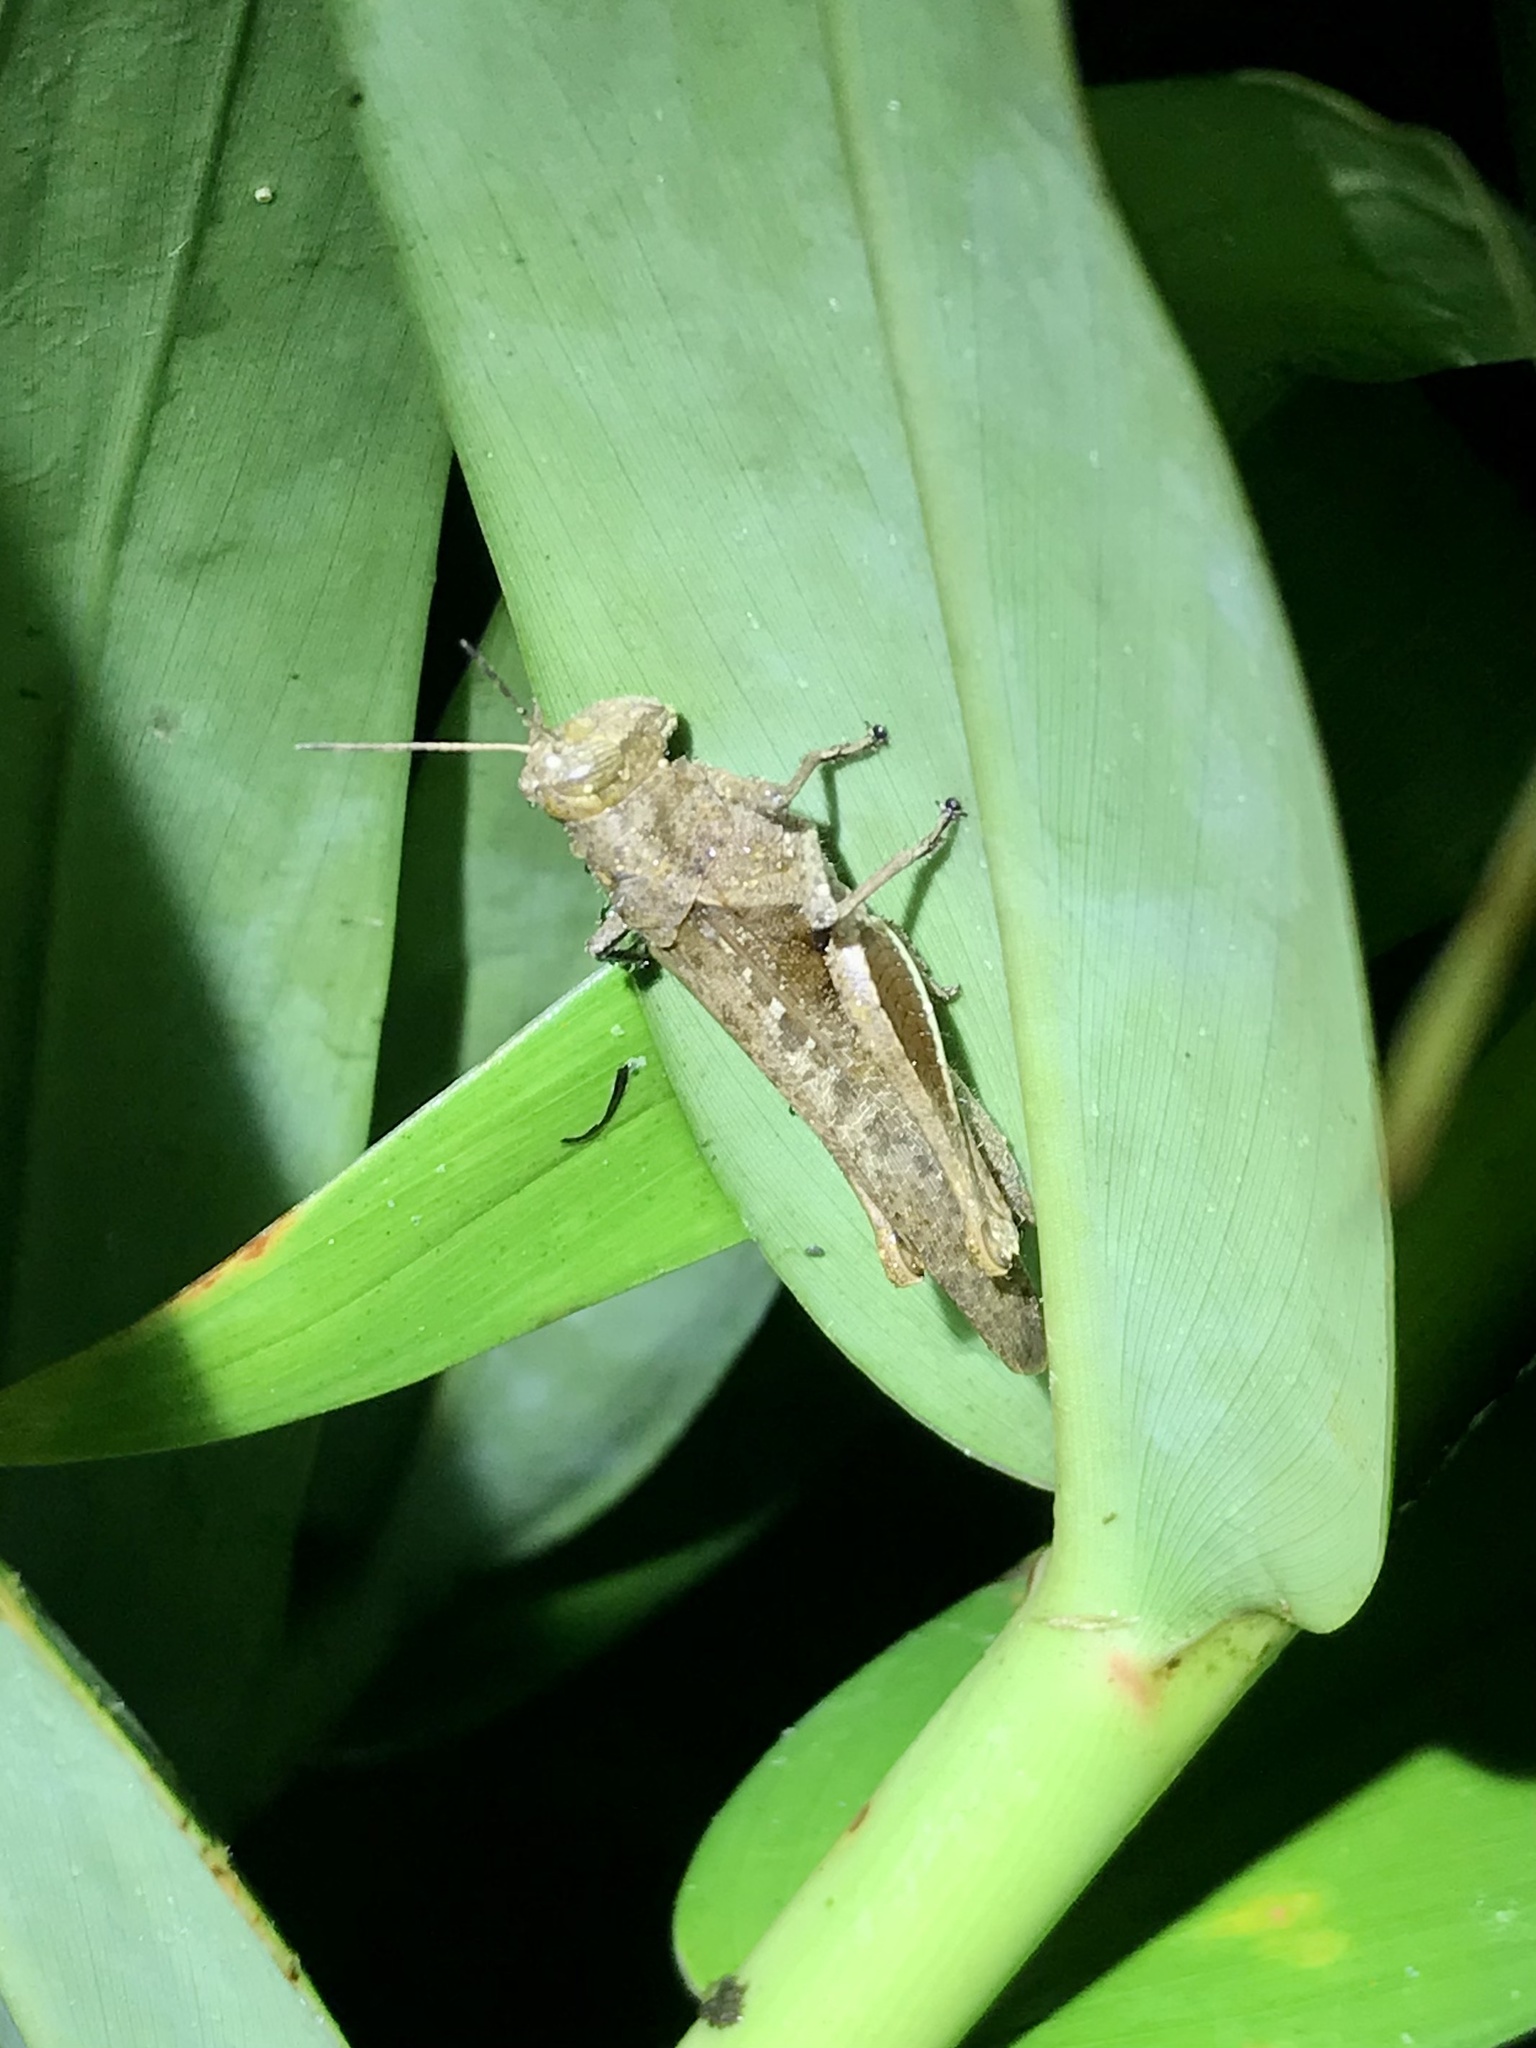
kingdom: Animalia
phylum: Arthropoda
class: Insecta
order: Orthoptera
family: Acrididae
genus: Abracris
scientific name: Abracris flavolineata
